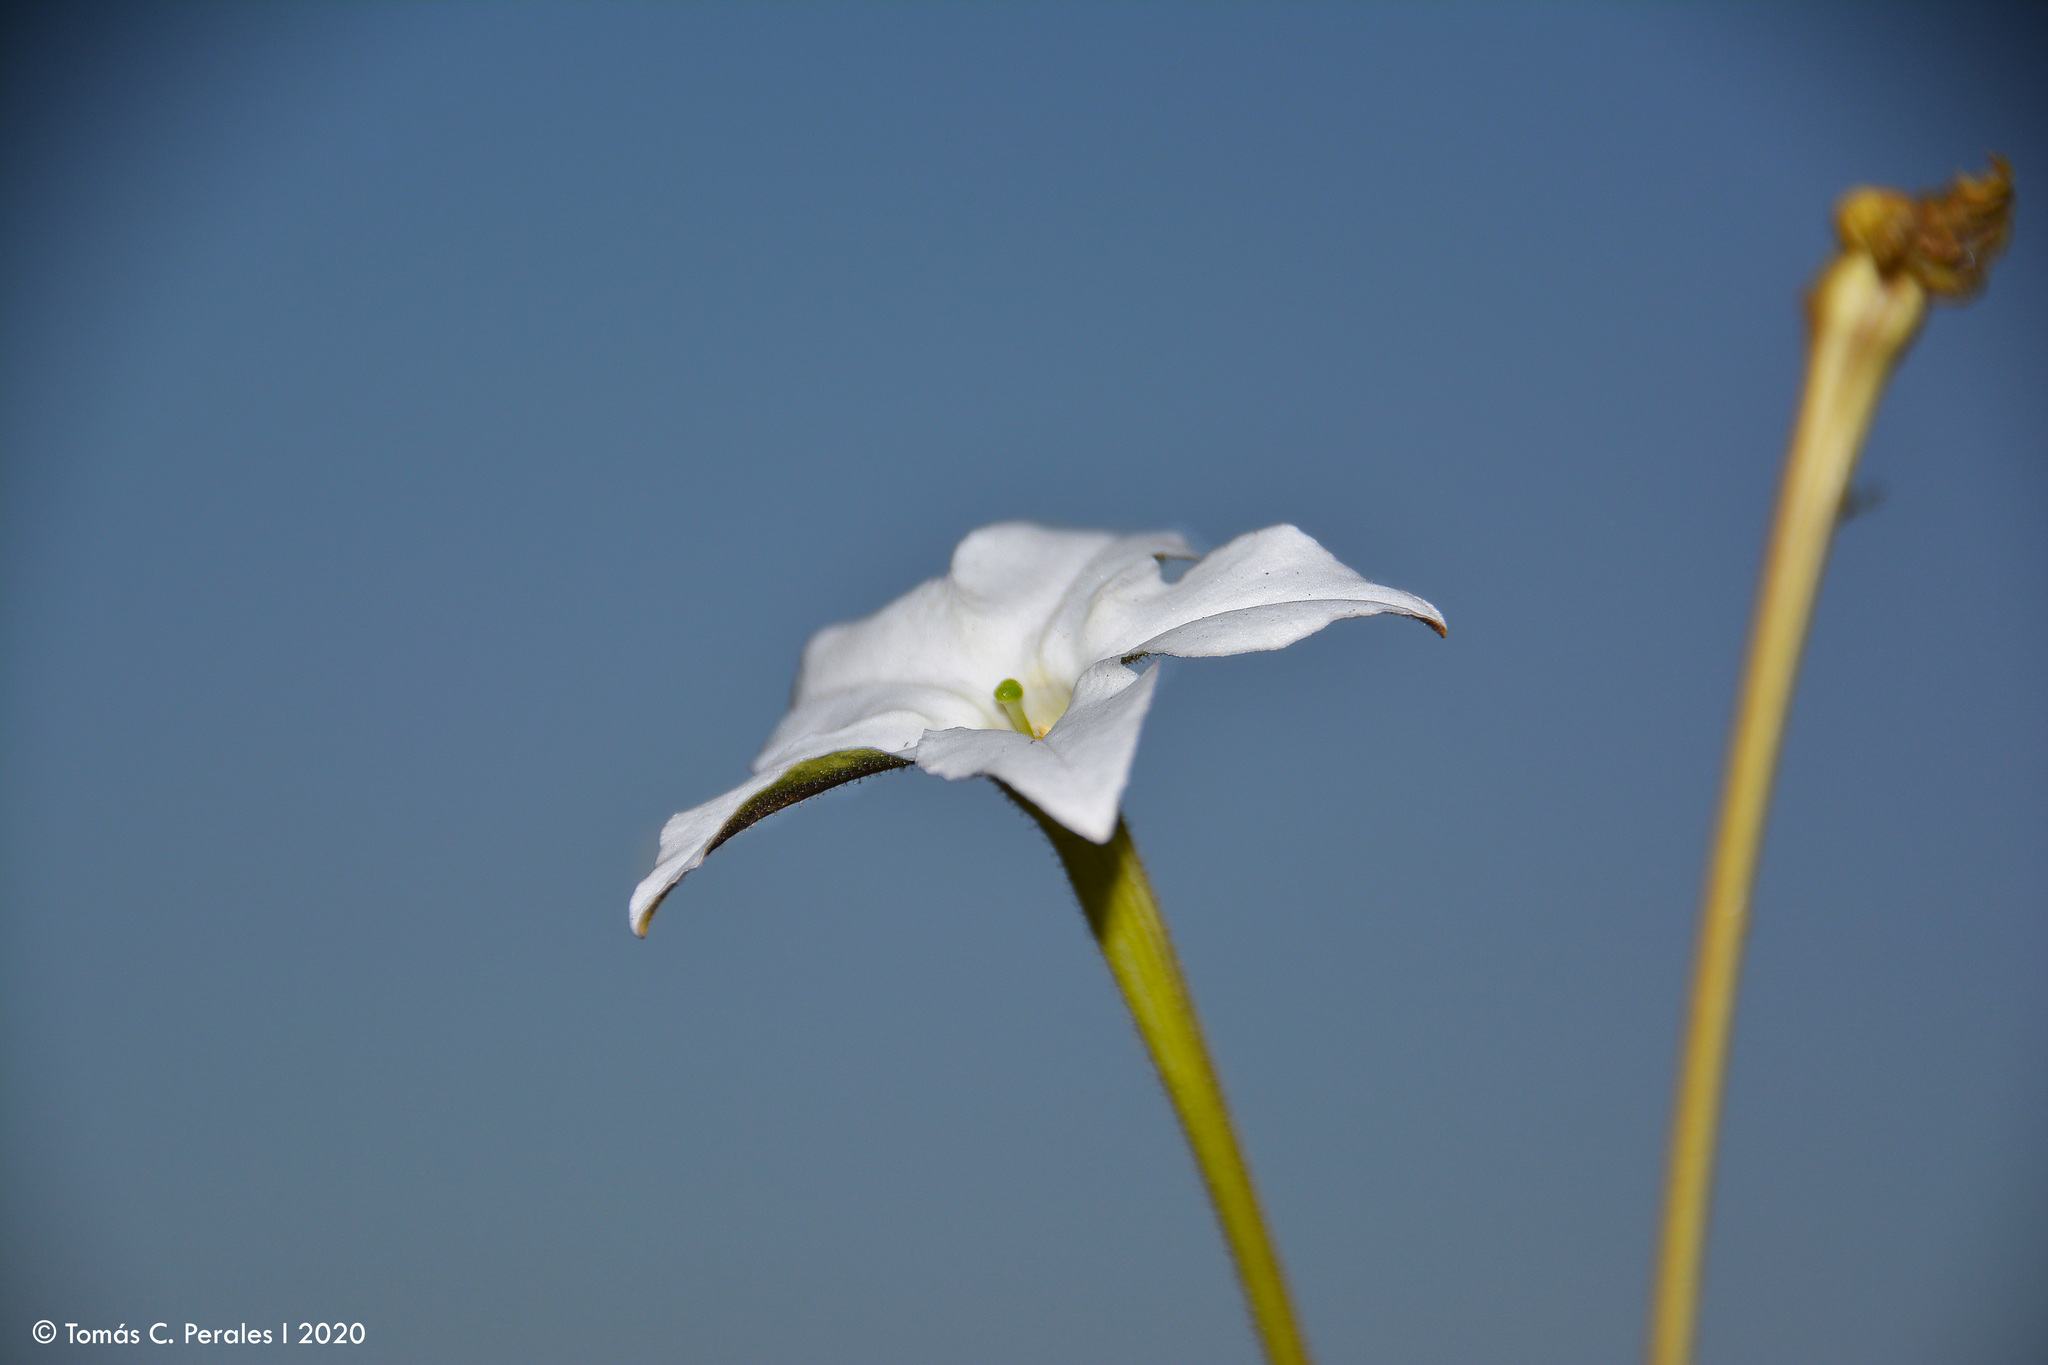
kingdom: Plantae
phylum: Tracheophyta
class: Magnoliopsida
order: Solanales
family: Solanaceae
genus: Nicotiana
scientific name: Nicotiana longiflora
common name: Long-flowered tobacco
